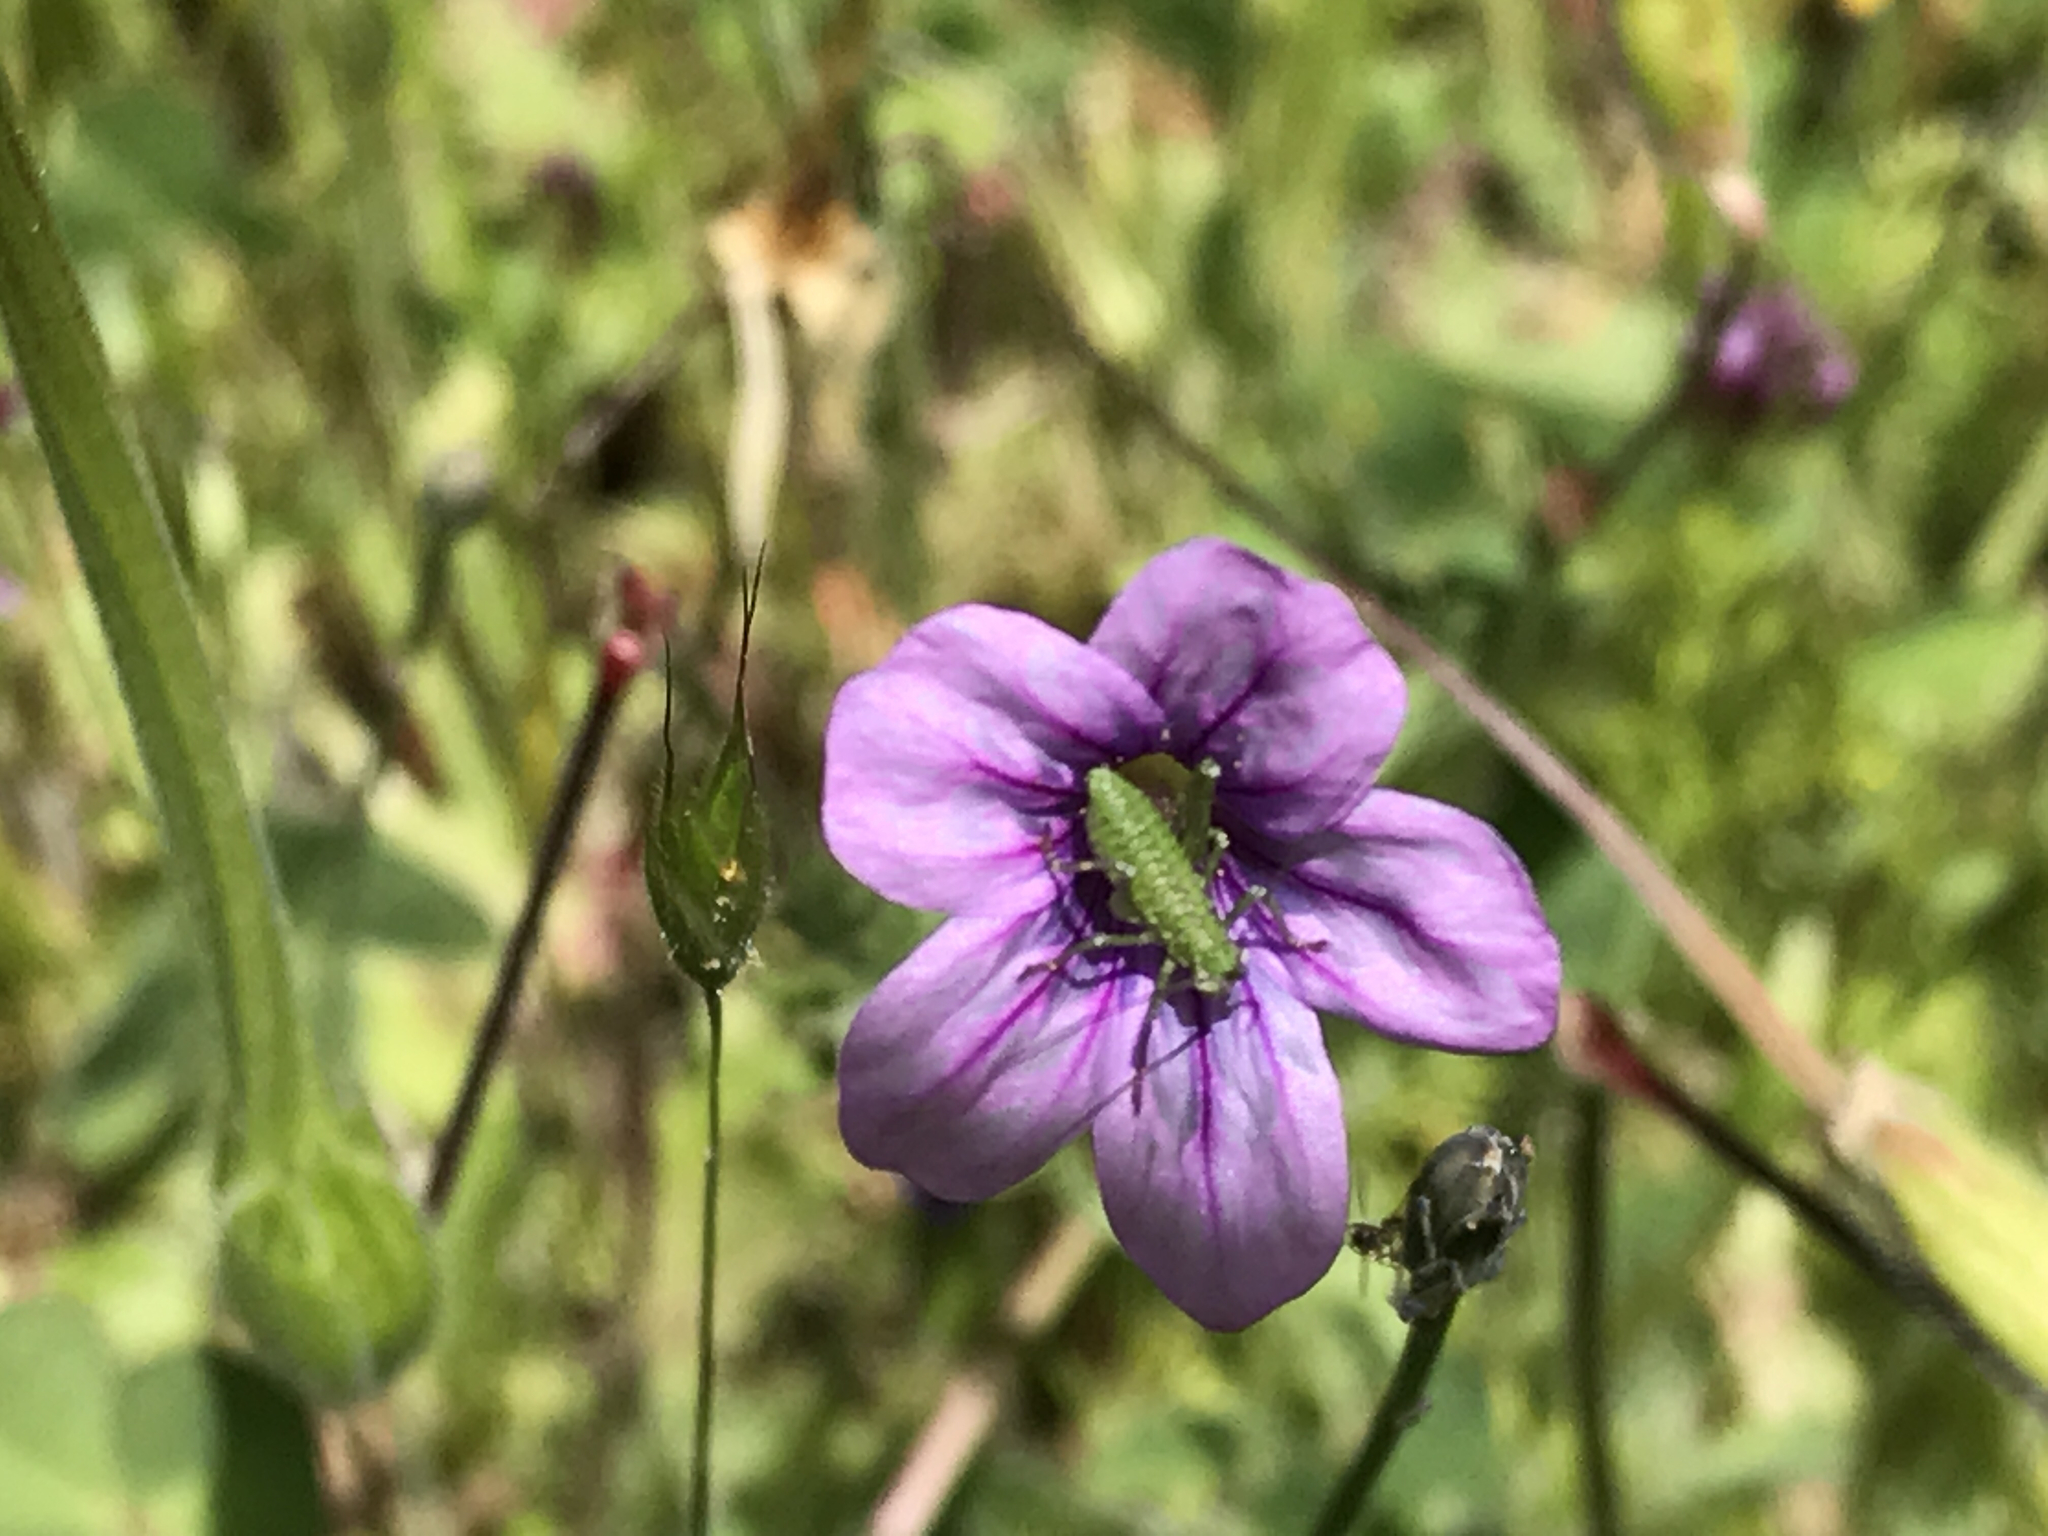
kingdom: Plantae
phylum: Tracheophyta
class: Magnoliopsida
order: Geraniales
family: Geraniaceae
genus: Erodium
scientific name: Erodium botrys
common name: Mediterranean stork's-bill
